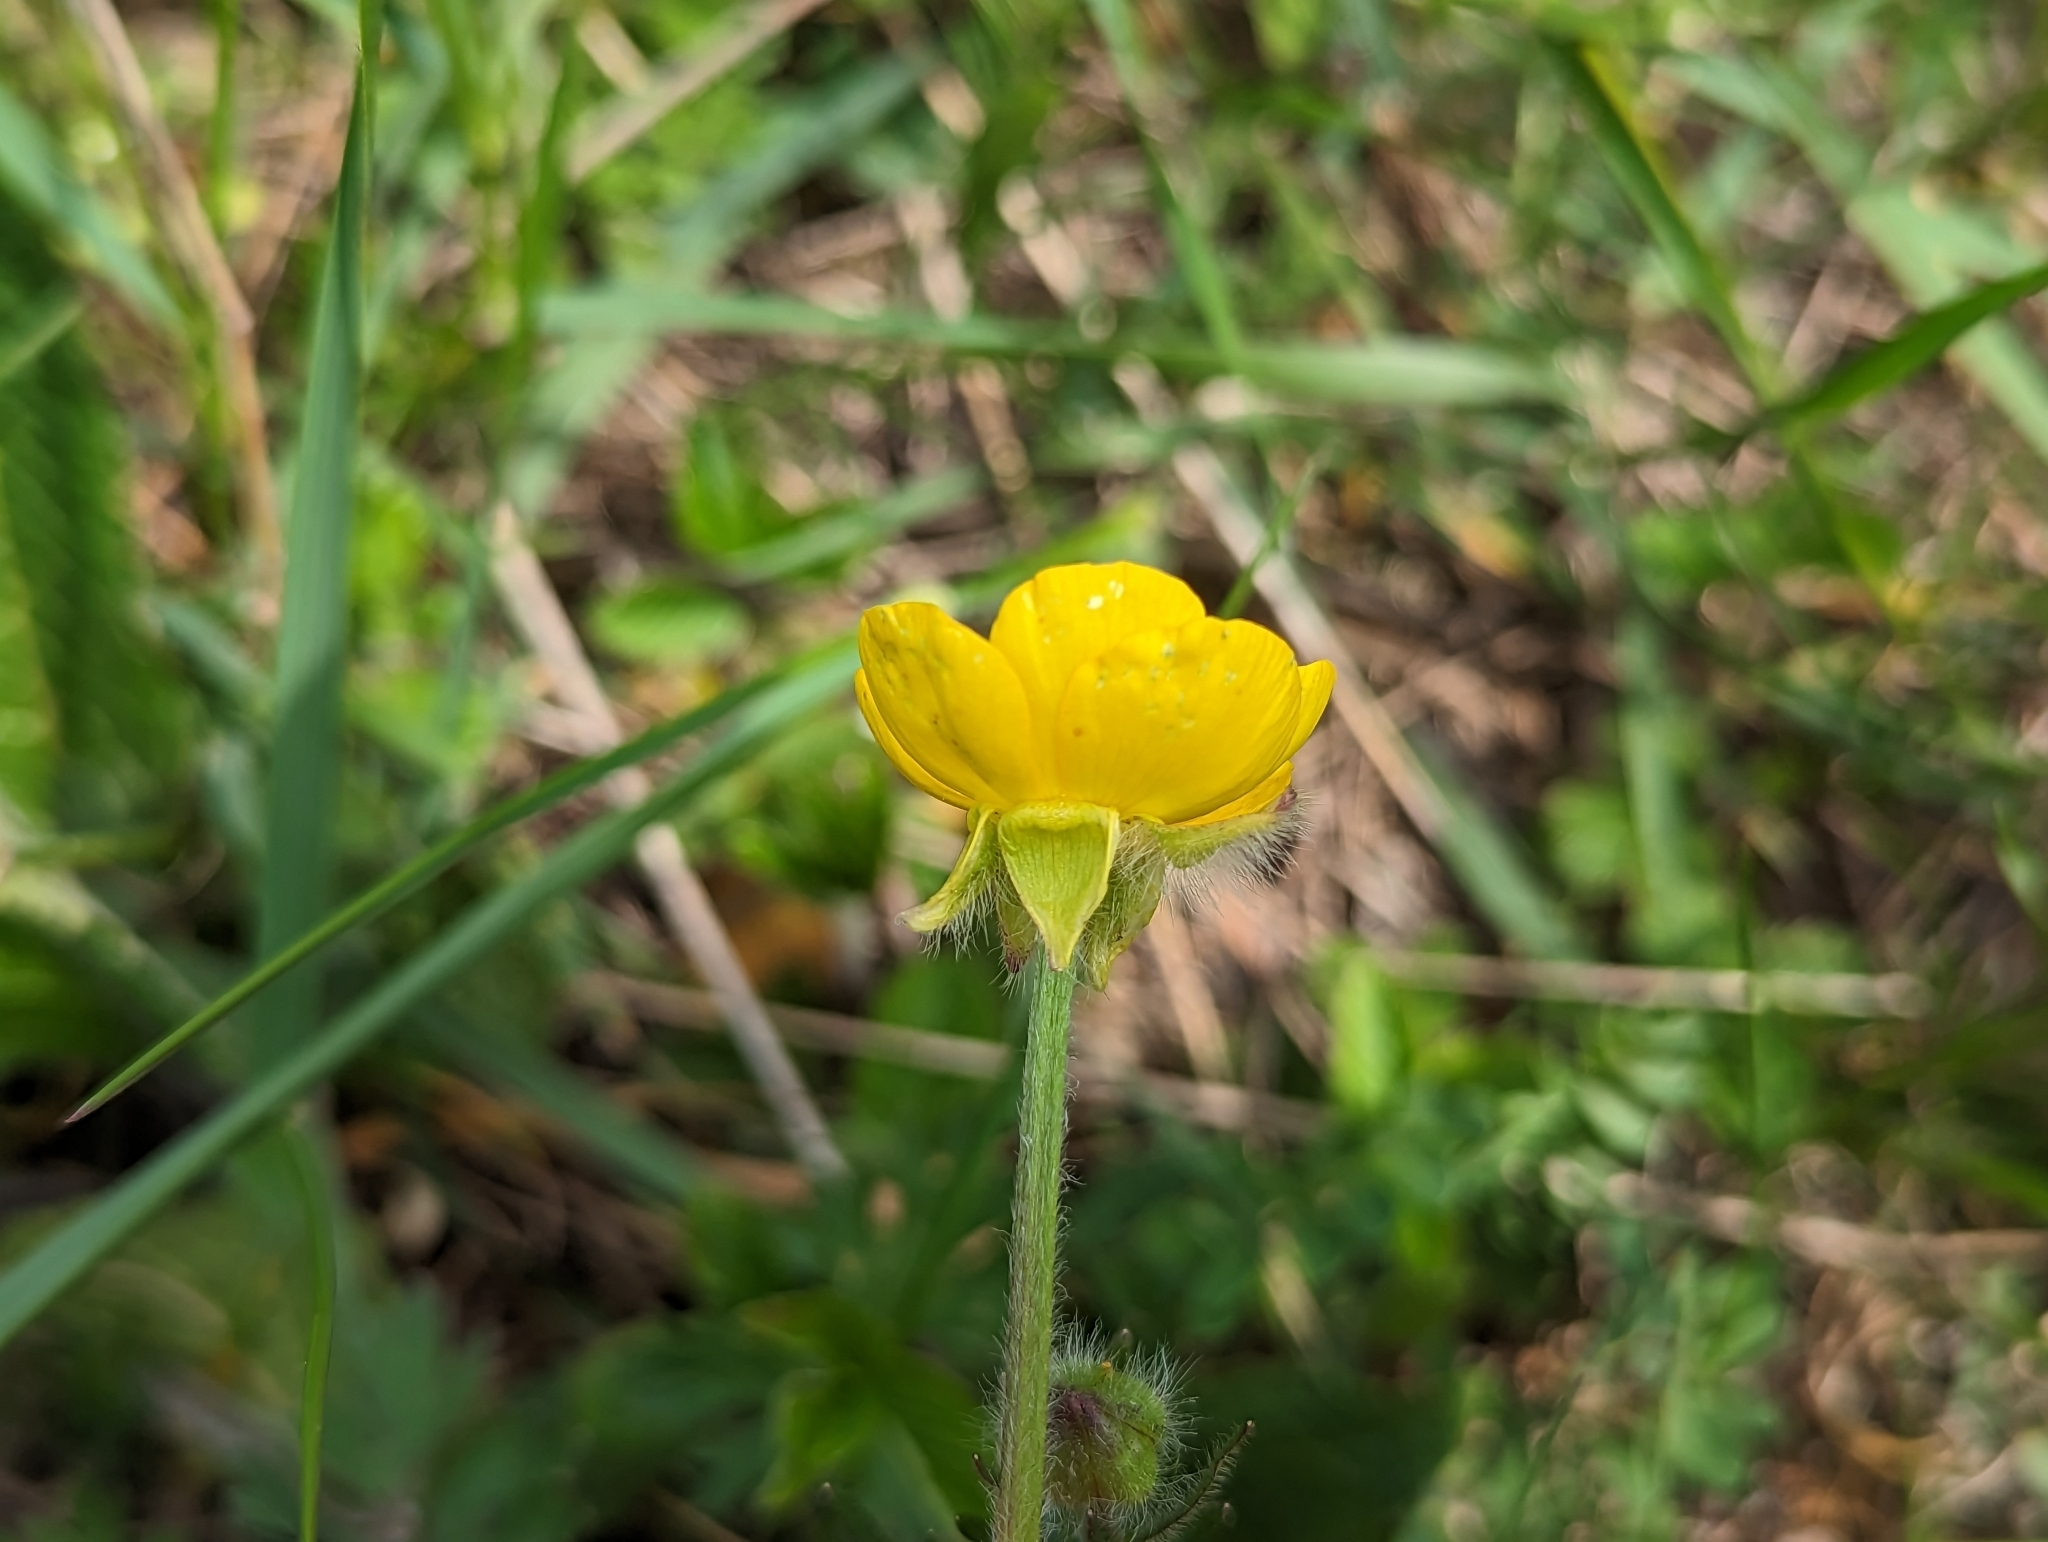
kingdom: Plantae
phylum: Tracheophyta
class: Magnoliopsida
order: Ranunculales
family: Ranunculaceae
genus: Ranunculus
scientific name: Ranunculus bulbosus
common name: Bulbous buttercup
